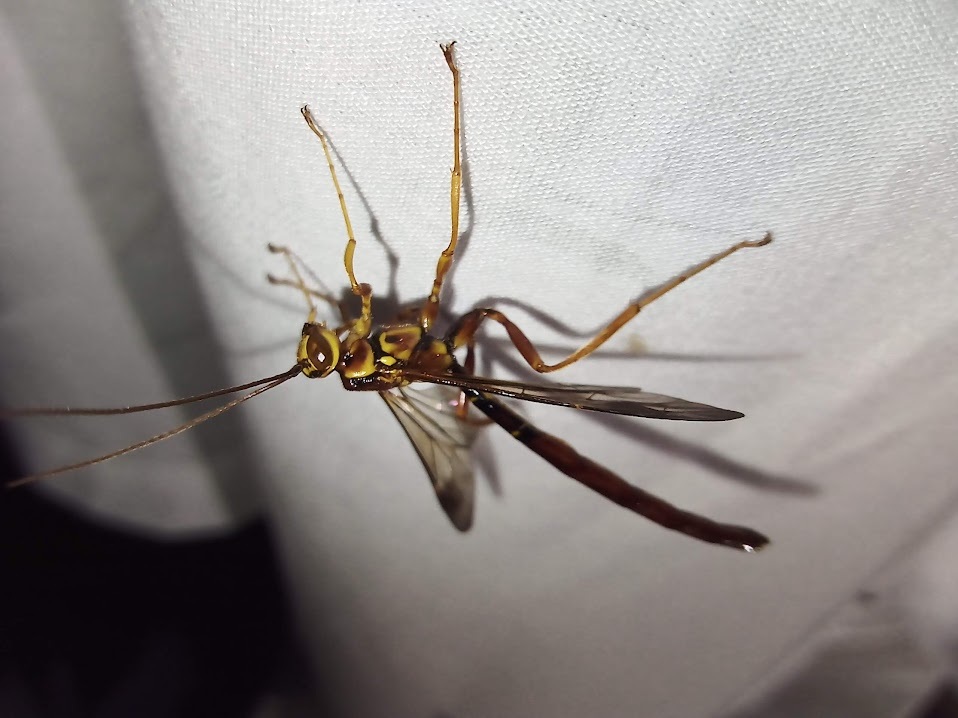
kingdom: Animalia
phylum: Arthropoda
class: Insecta
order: Hymenoptera
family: Ichneumonidae
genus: Megarhyssa
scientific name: Megarhyssa macrura
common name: Long-tailed giant ichneumonid wasp
